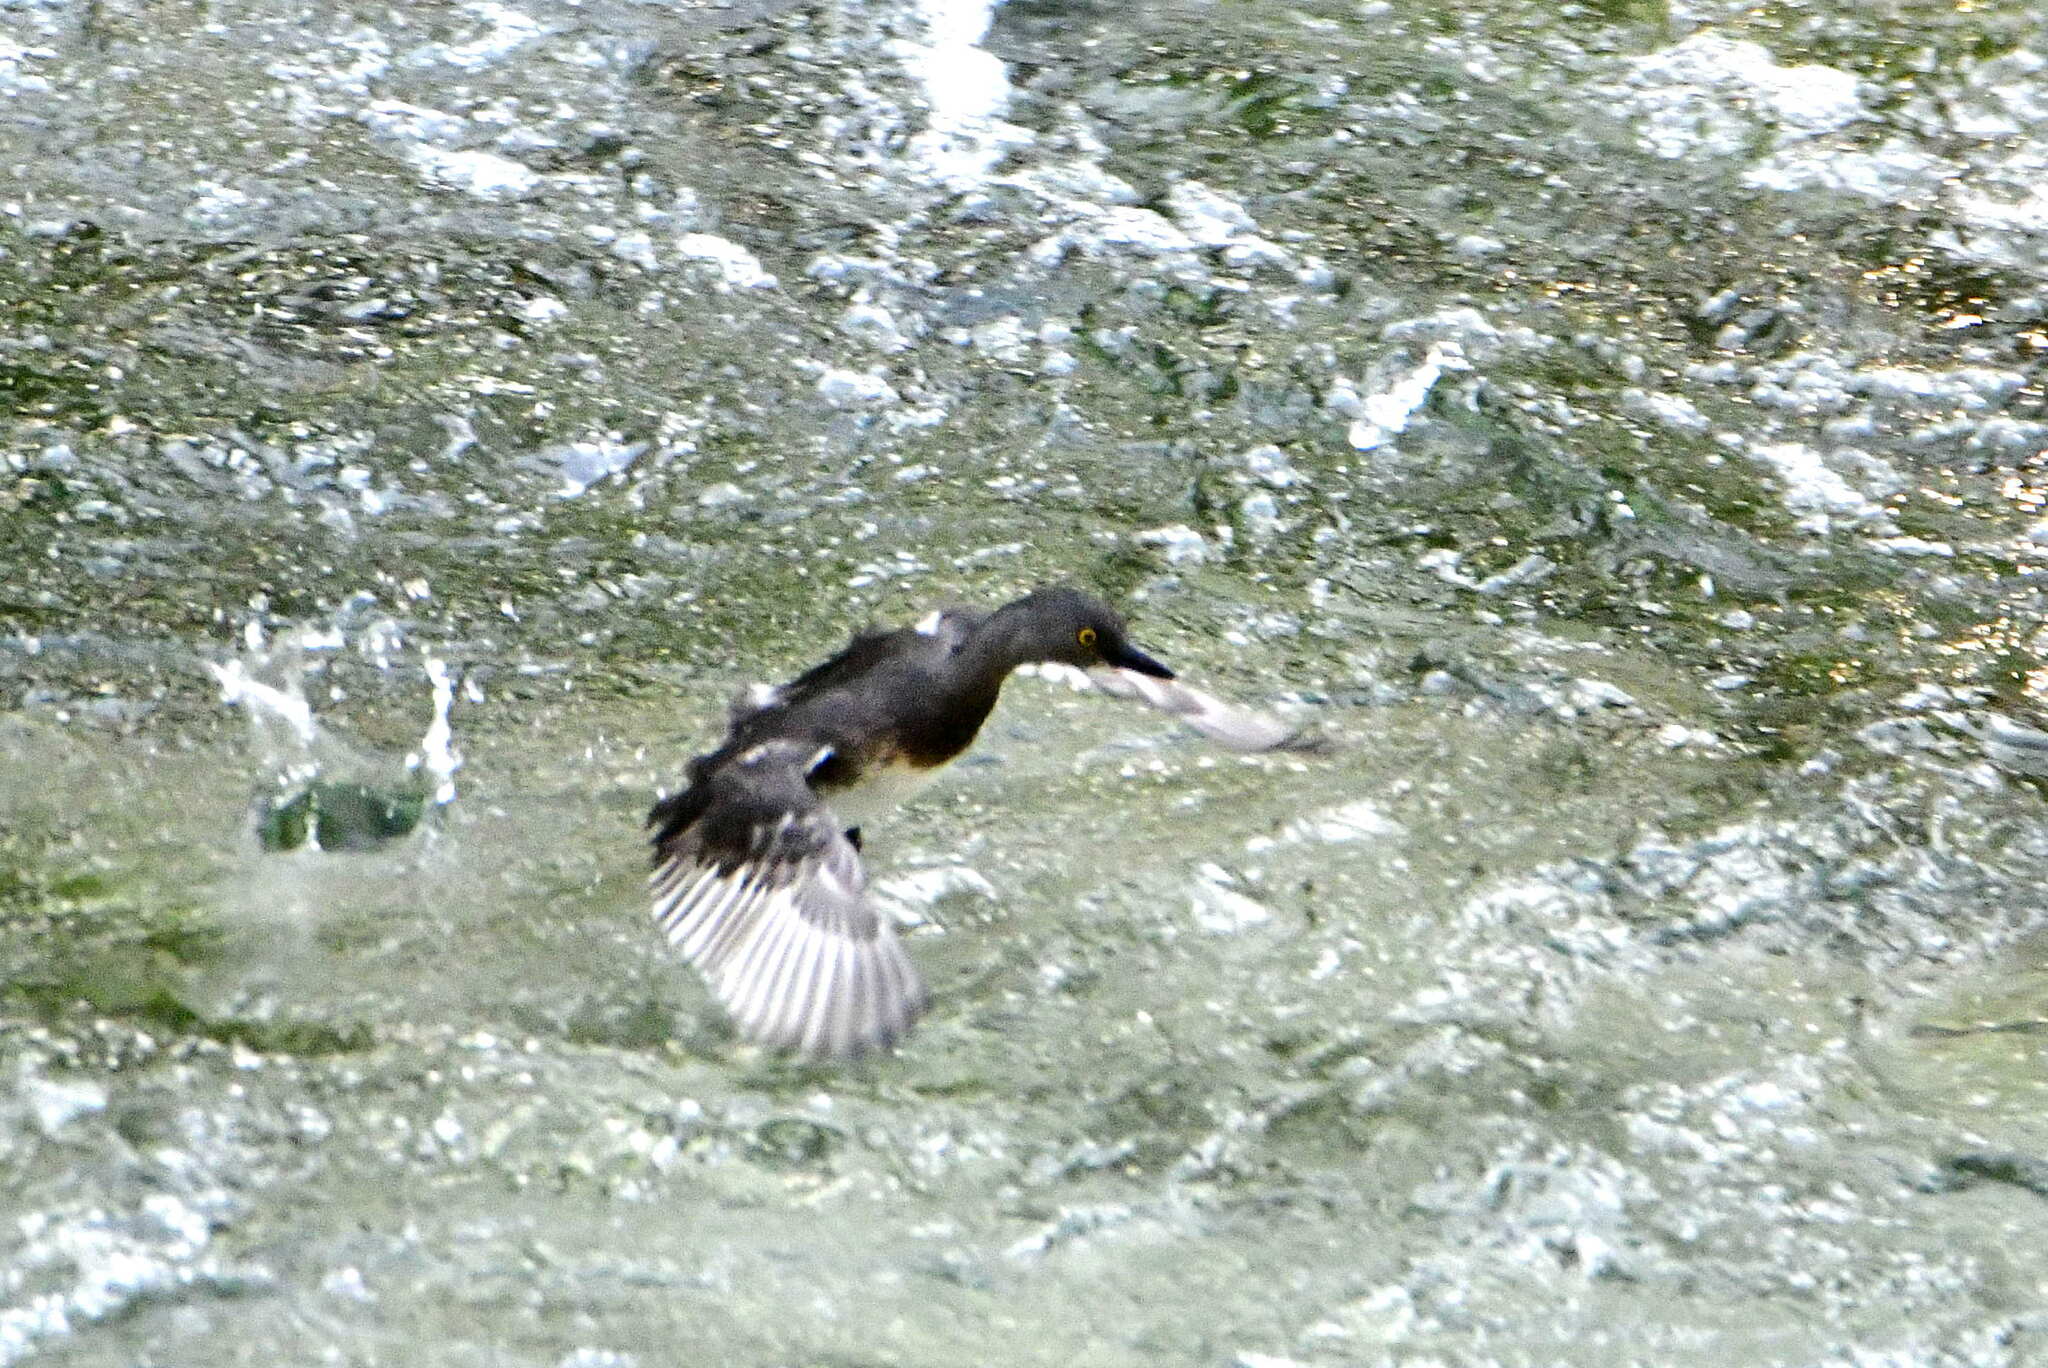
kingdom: Animalia
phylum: Chordata
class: Aves
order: Podicipediformes
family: Podicipedidae
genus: Tachybaptus
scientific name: Tachybaptus dominicus
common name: Least grebe
